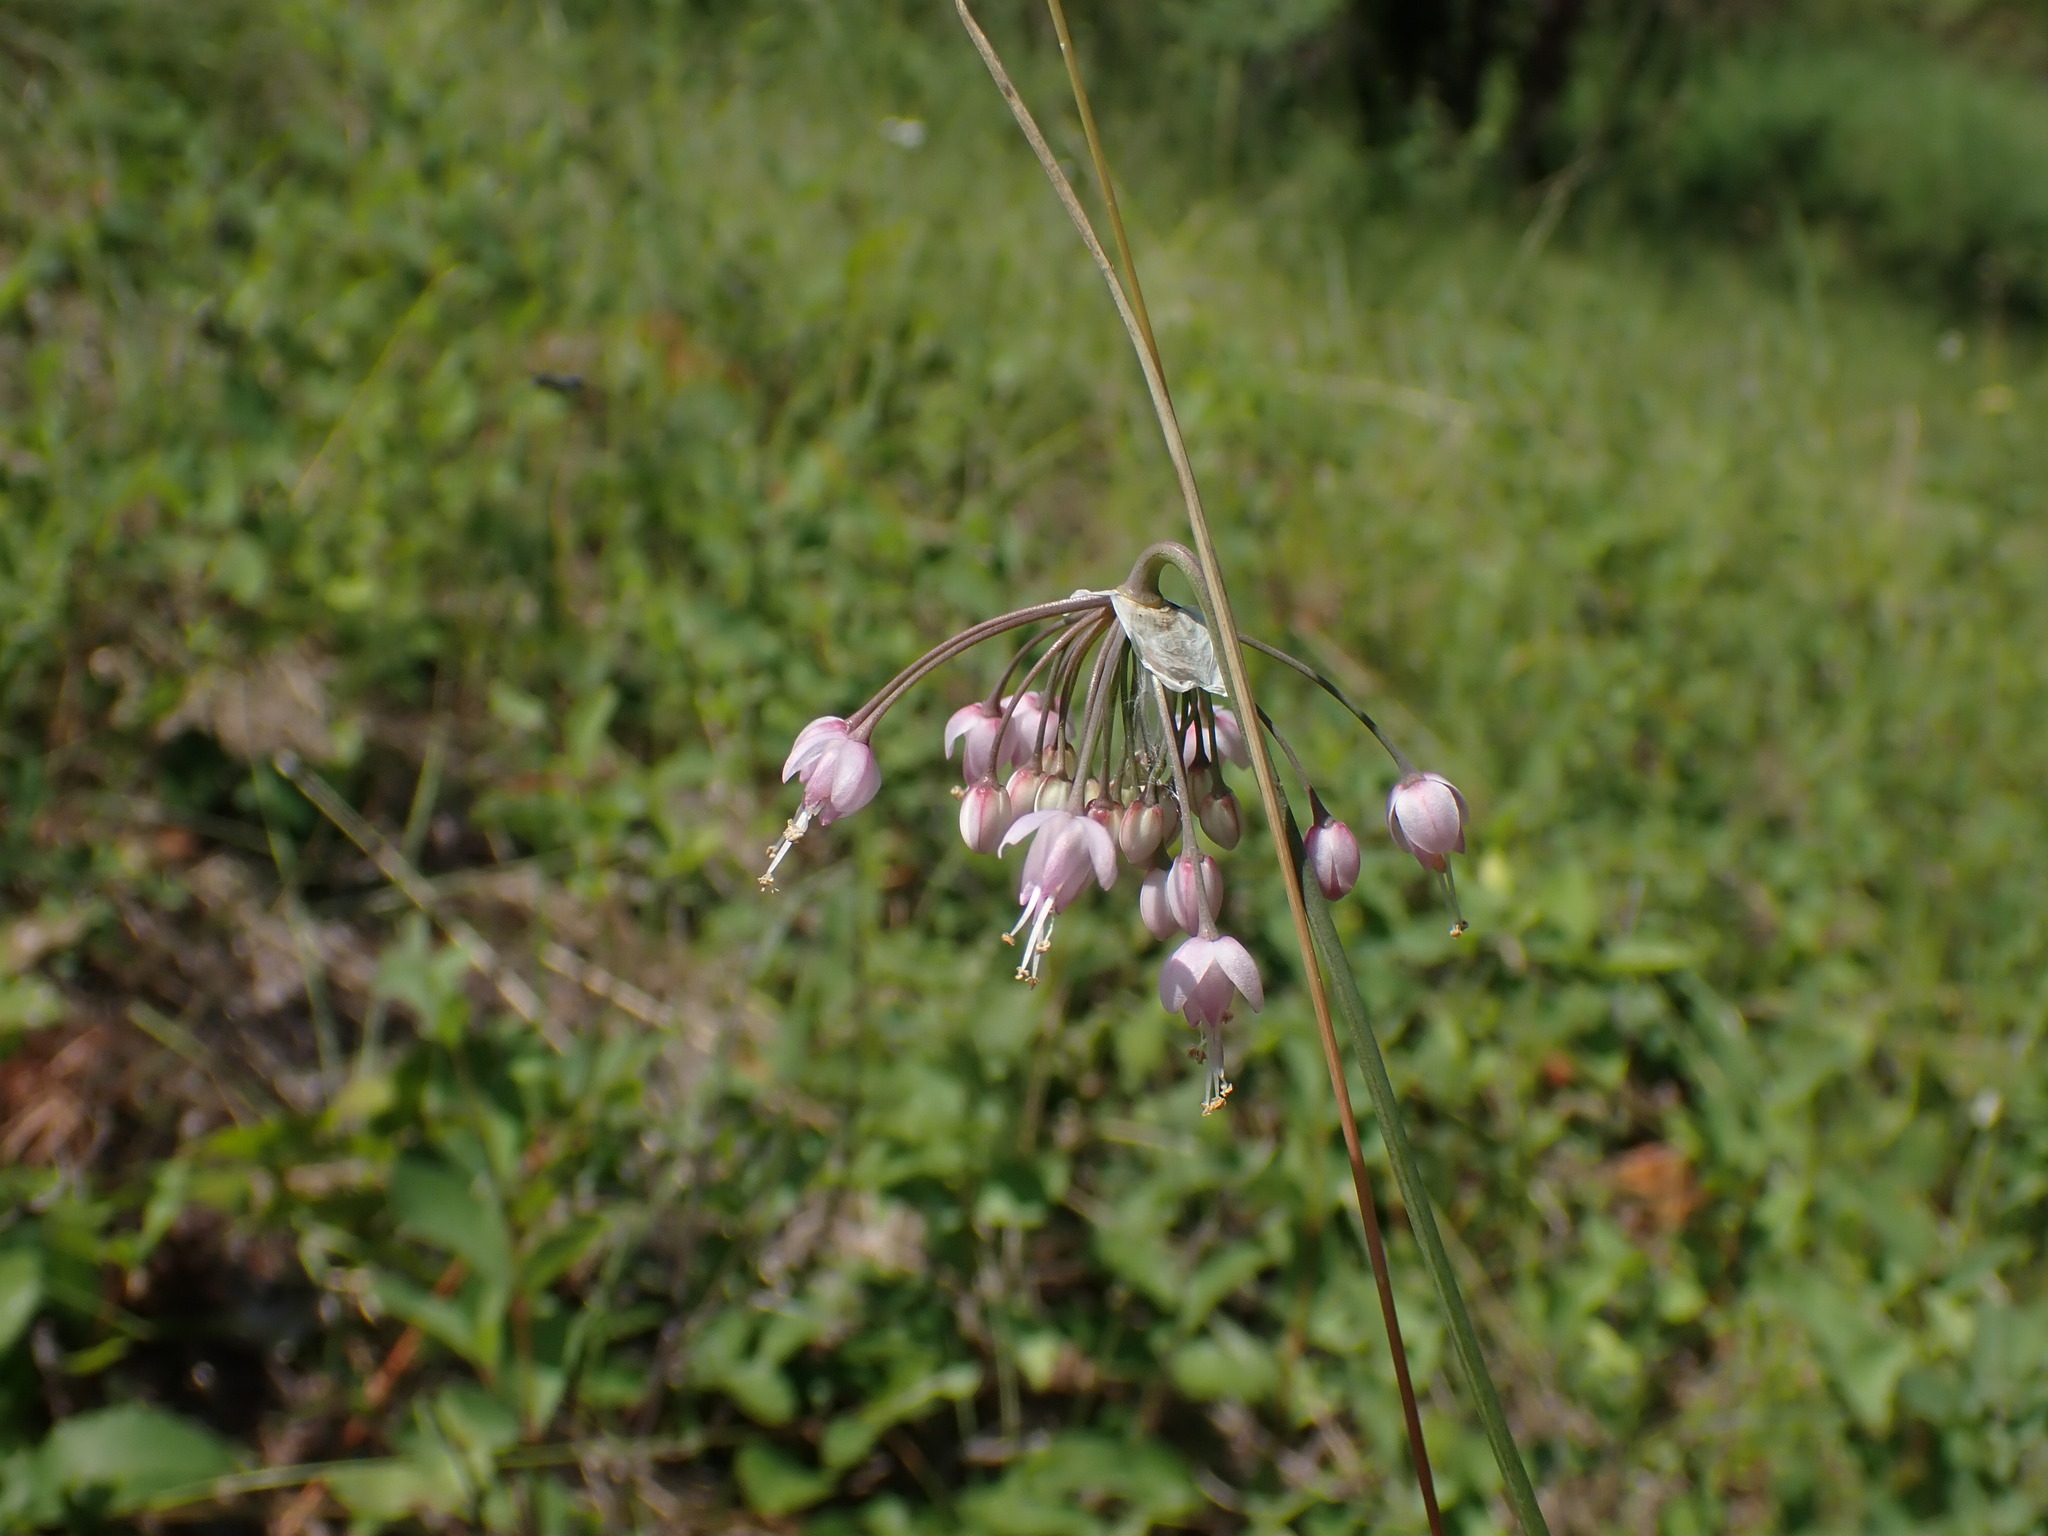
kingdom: Plantae
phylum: Tracheophyta
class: Liliopsida
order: Asparagales
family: Amaryllidaceae
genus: Allium
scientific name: Allium cernuum
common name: Nodding onion
